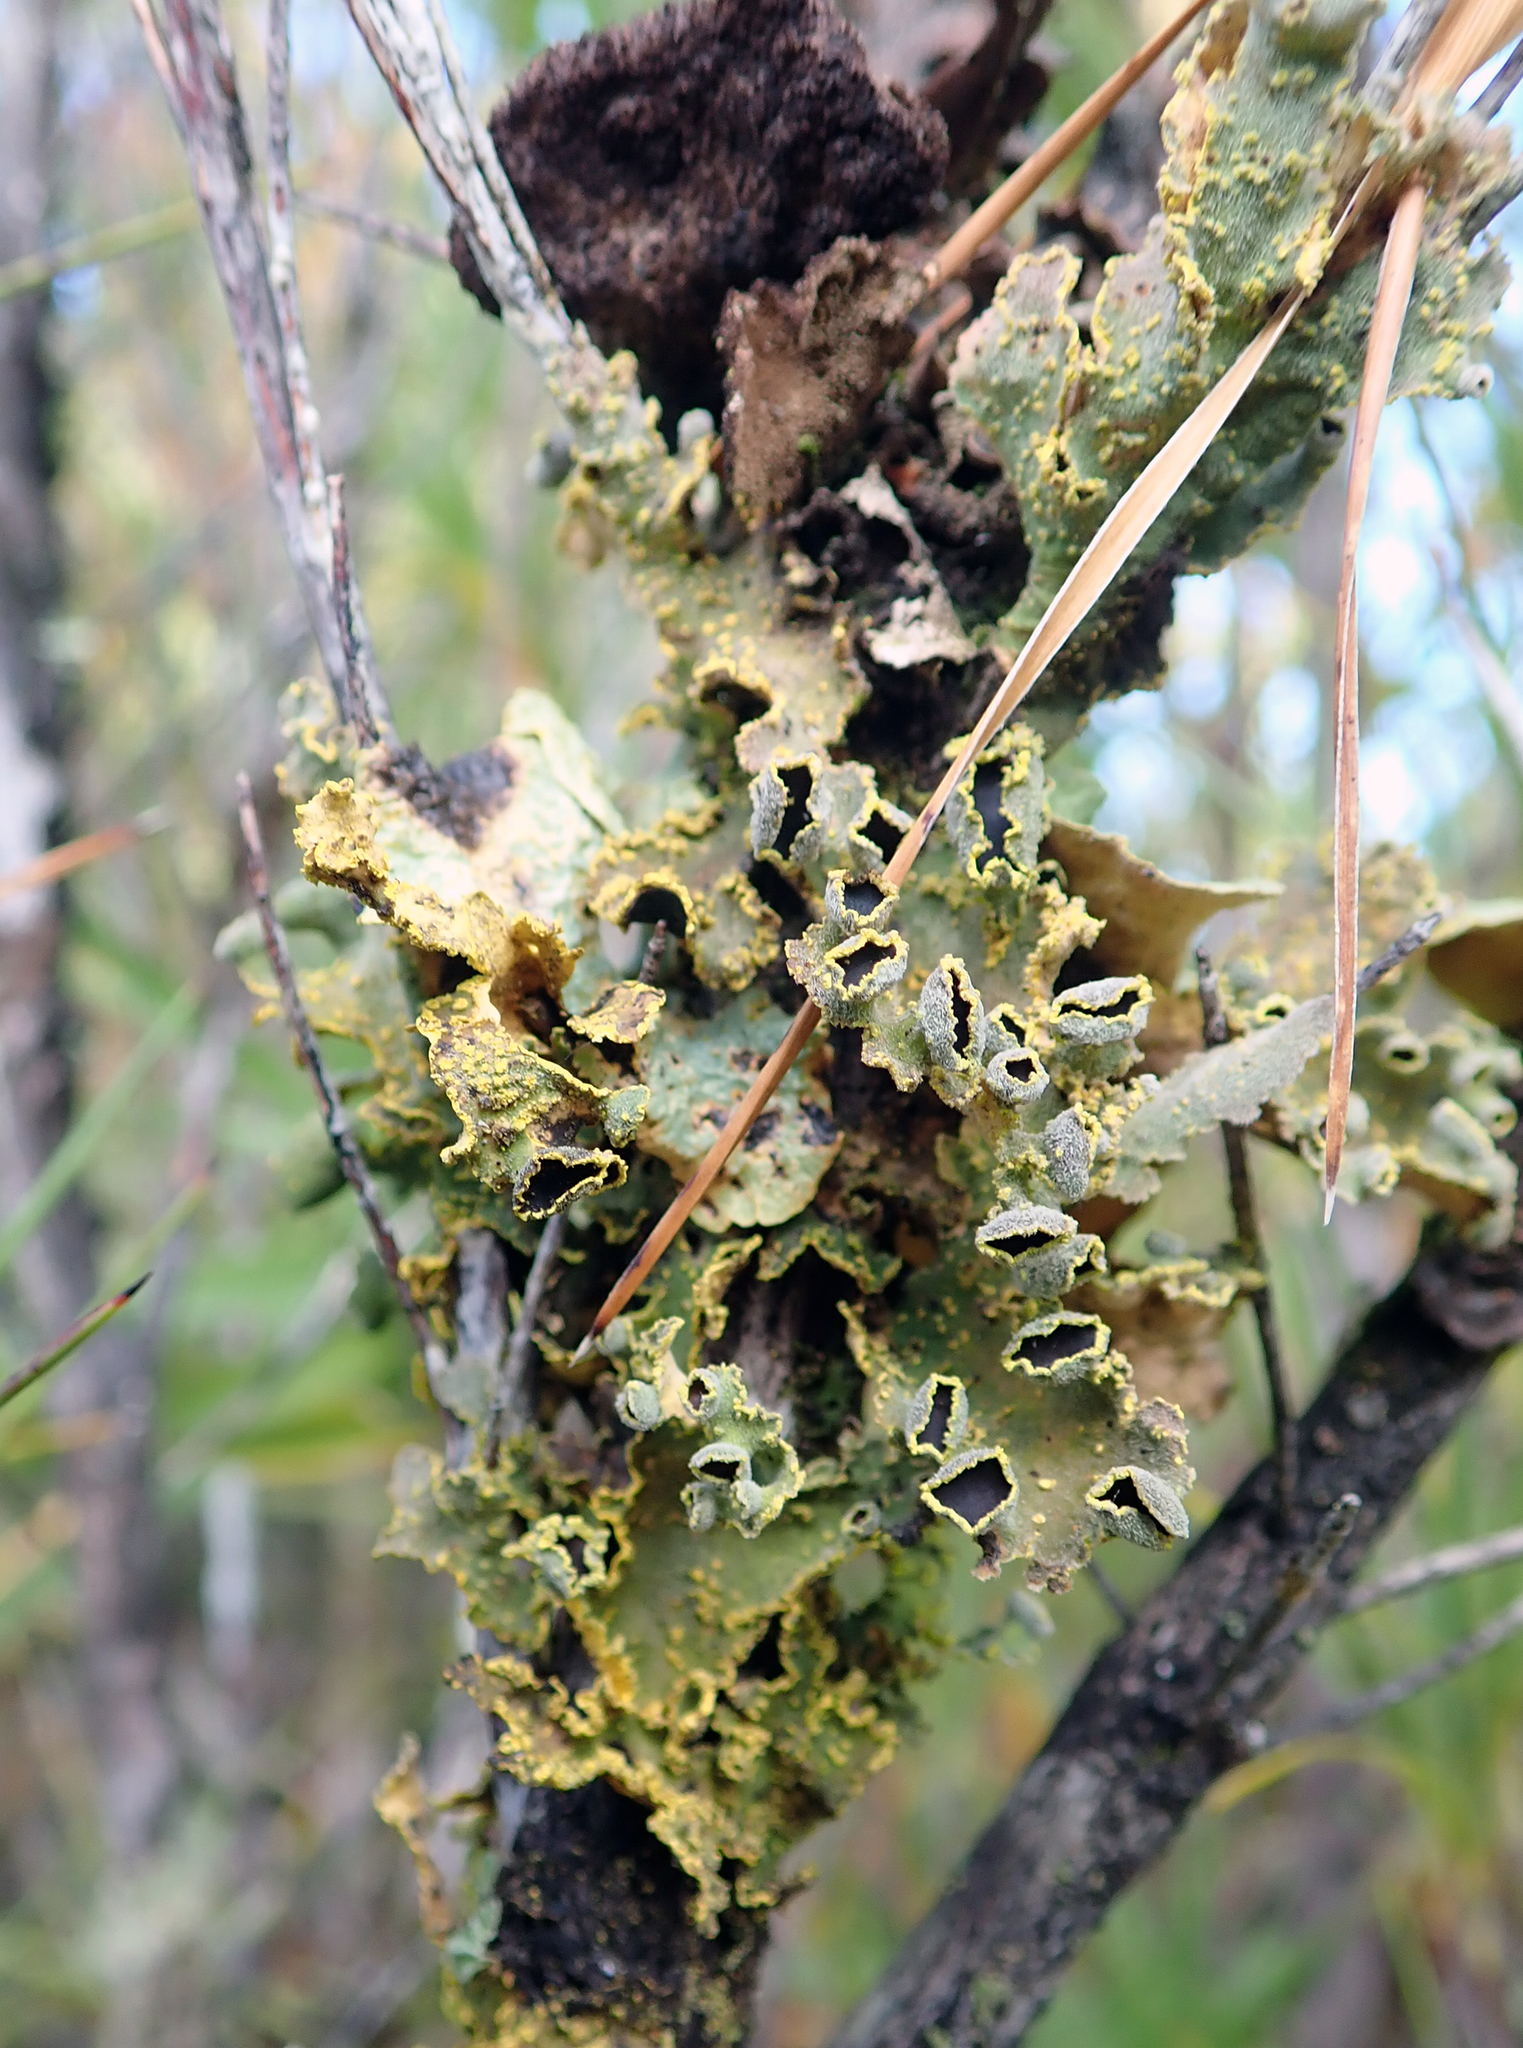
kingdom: Fungi
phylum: Ascomycota
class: Lecanoromycetes
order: Peltigerales
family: Lobariaceae
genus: Pseudocyphellaria
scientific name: Pseudocyphellaria rubella
